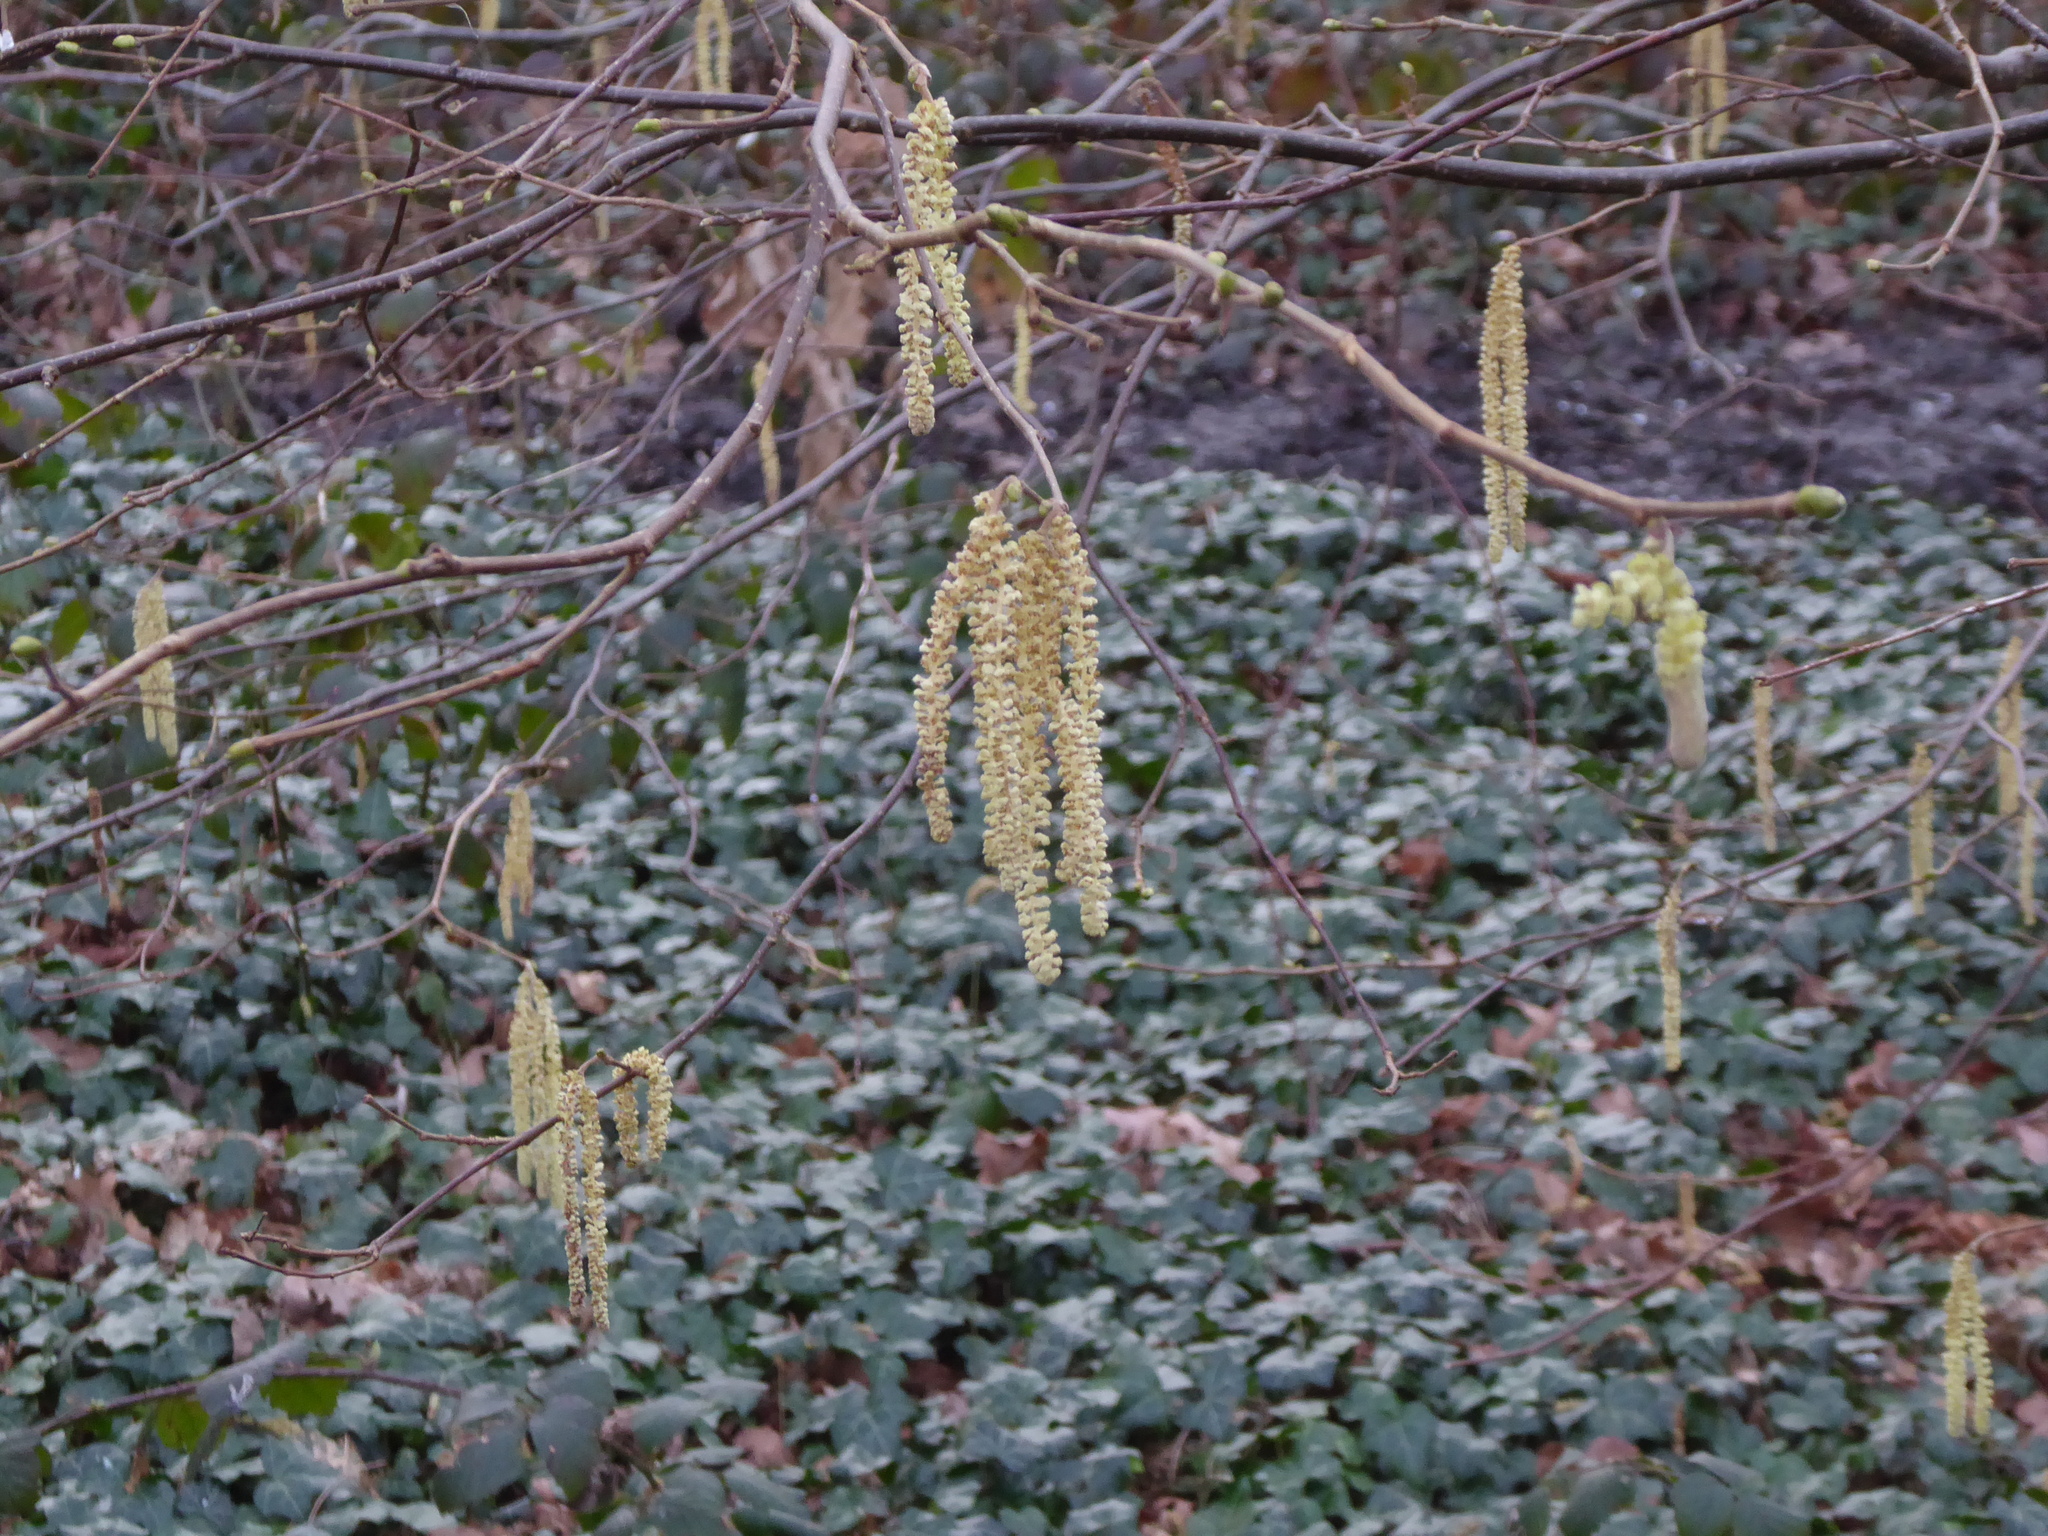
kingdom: Plantae
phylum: Tracheophyta
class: Magnoliopsida
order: Fagales
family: Betulaceae
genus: Corylus
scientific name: Corylus avellana
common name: European hazel
